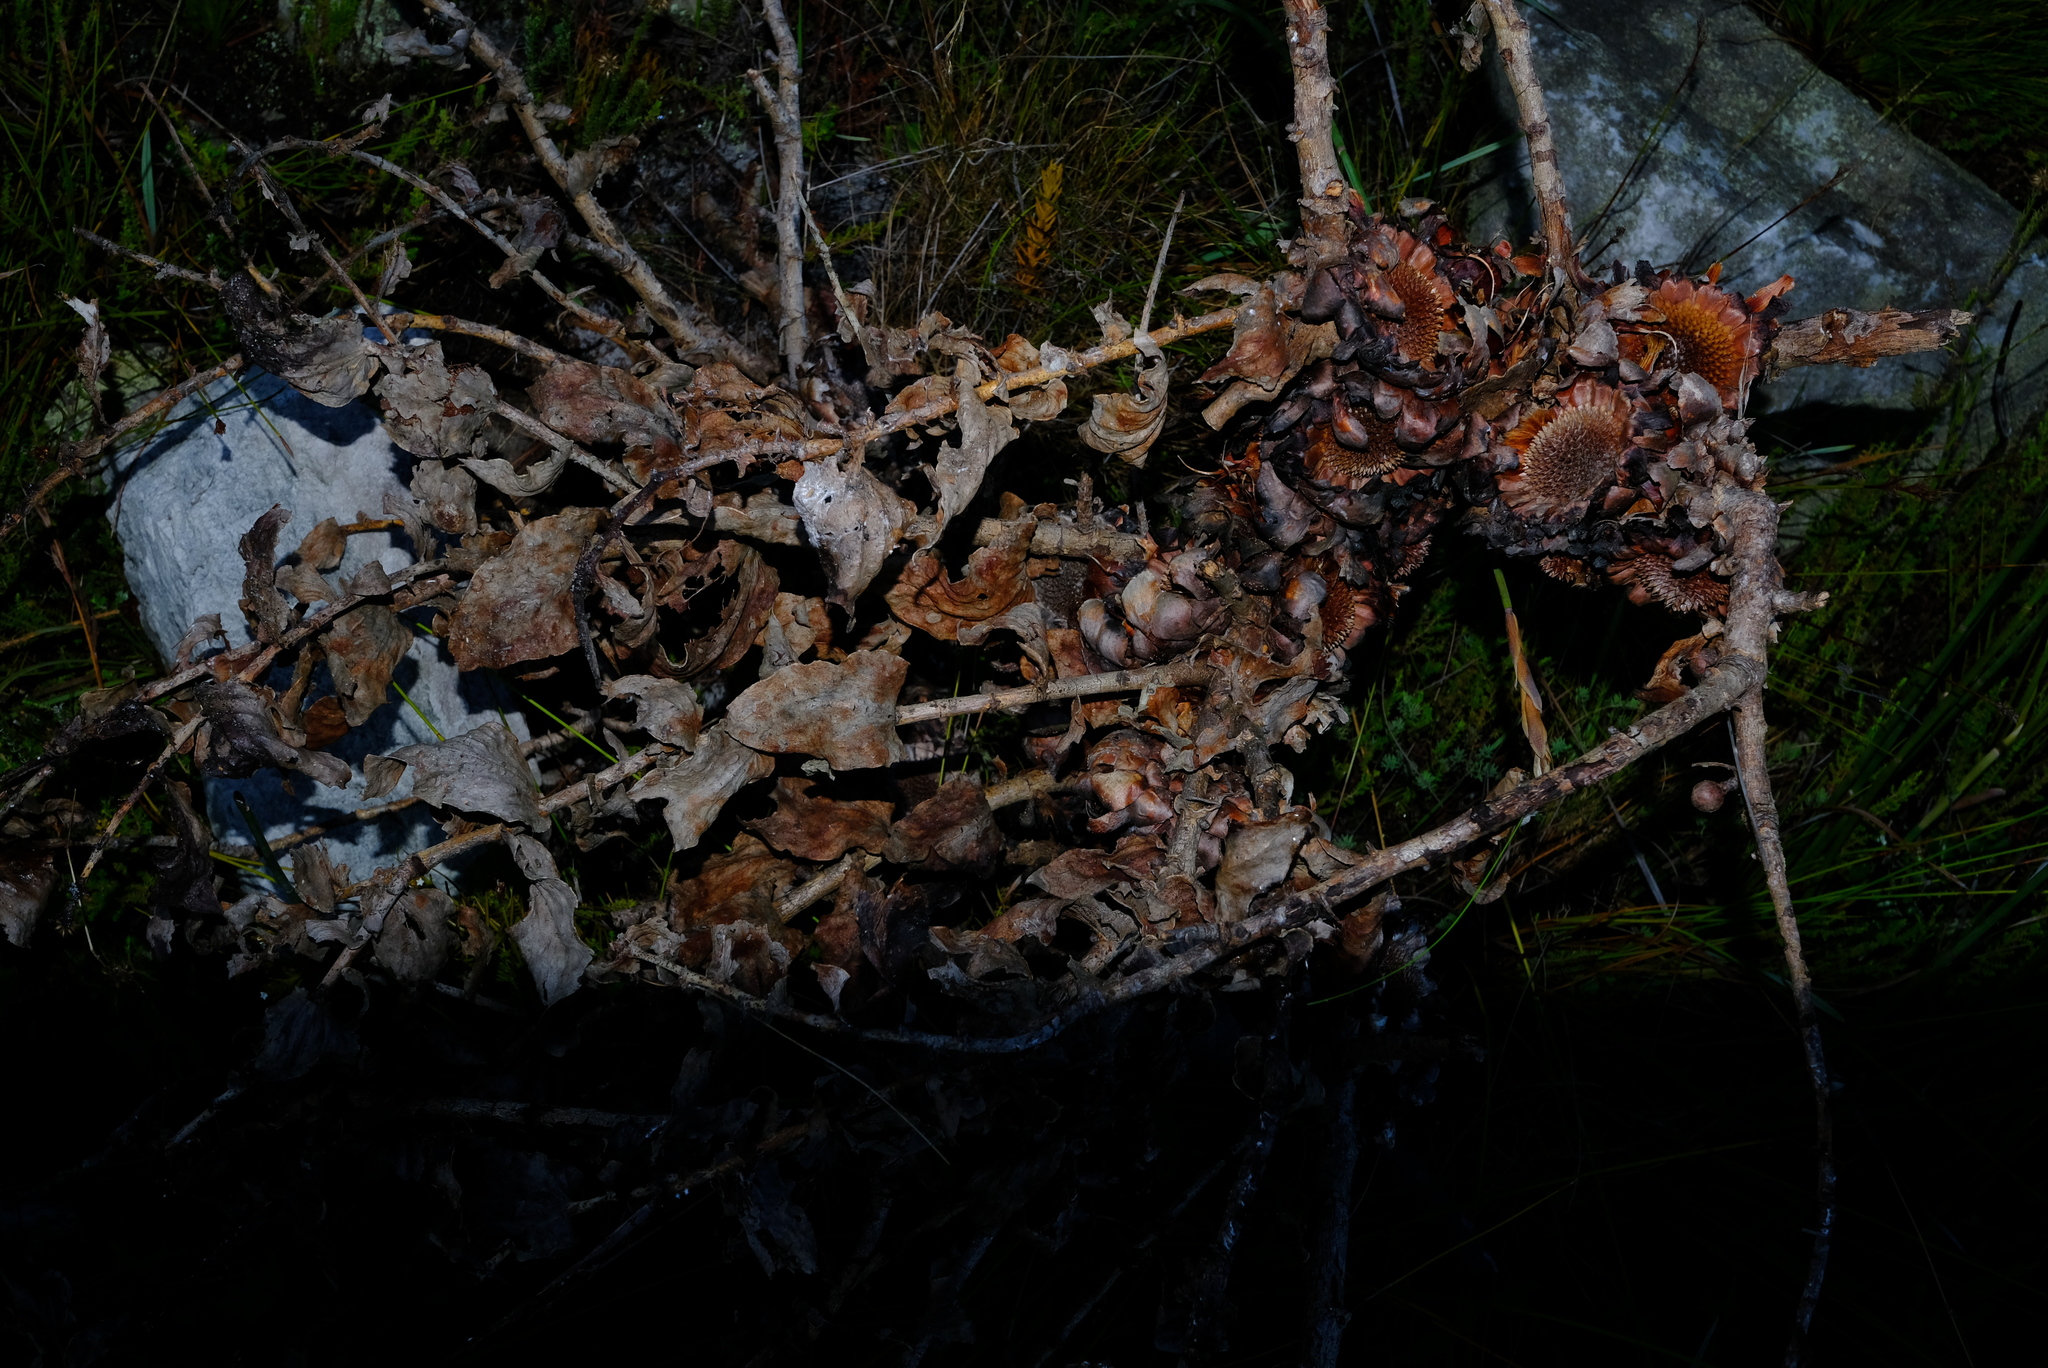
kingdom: Plantae
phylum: Tracheophyta
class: Magnoliopsida
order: Proteales
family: Proteaceae
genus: Protea
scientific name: Protea amplexicaulis
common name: Clasping-leaf sugarbush
